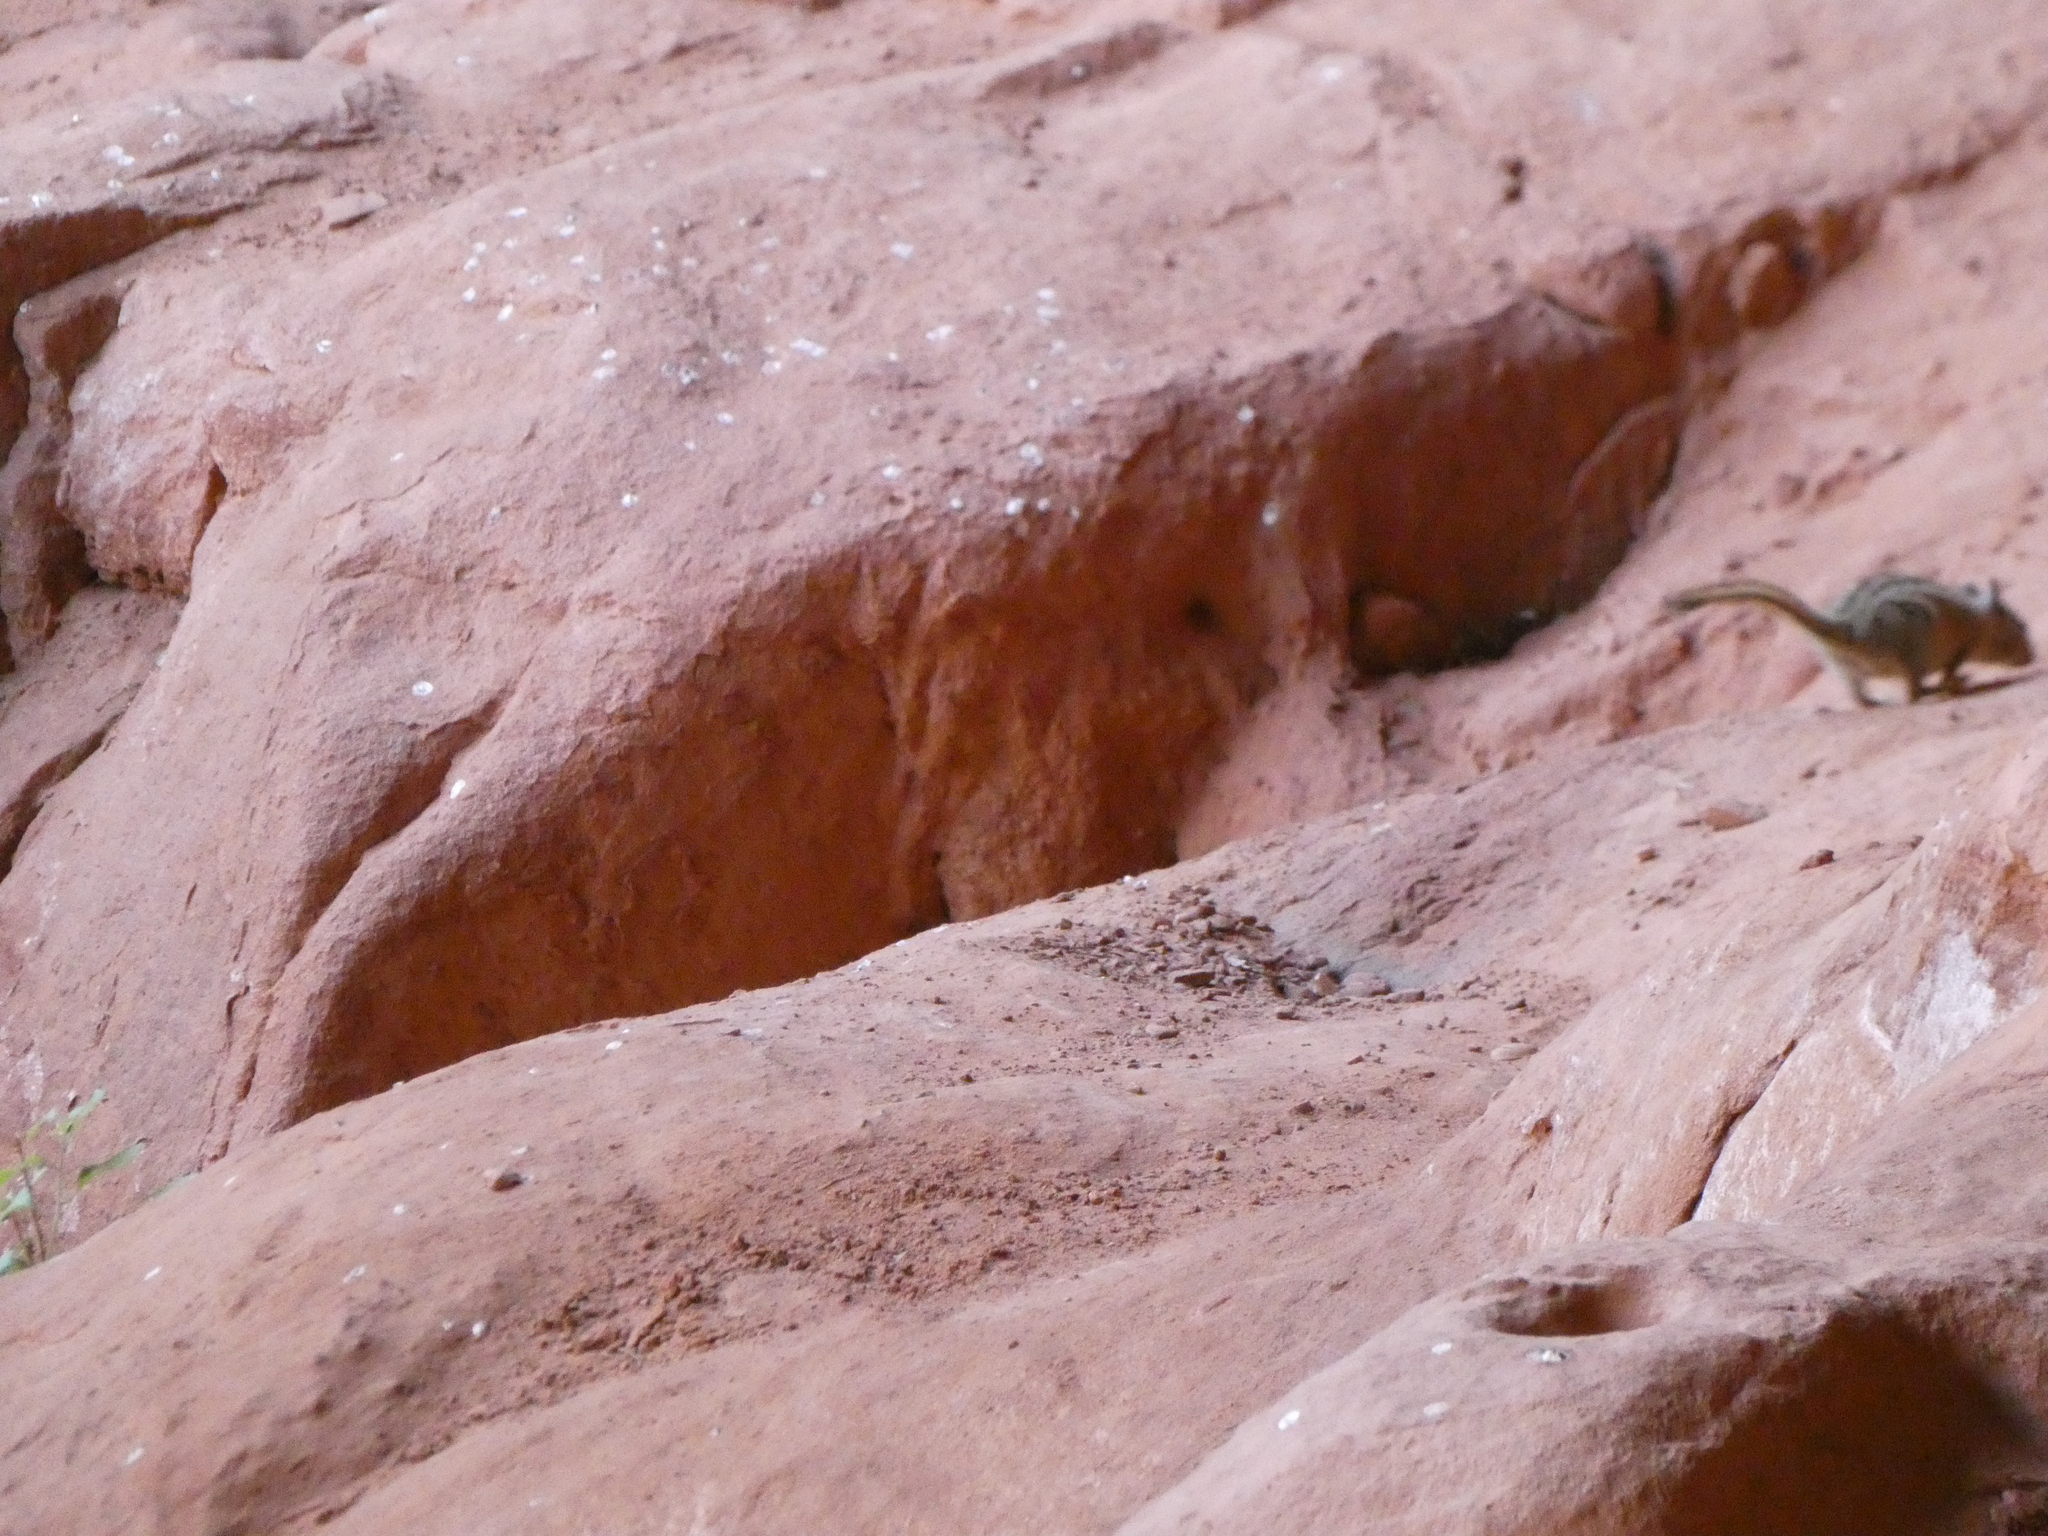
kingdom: Animalia
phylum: Chordata
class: Mammalia
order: Rodentia
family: Sciuridae
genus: Tamias
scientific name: Tamias umbrinus
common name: Uinta chipmunk
